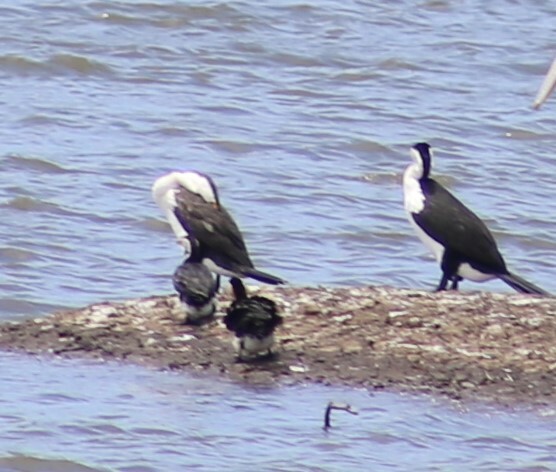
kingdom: Animalia
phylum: Chordata
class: Aves
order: Suliformes
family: Phalacrocoracidae
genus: Phalacrocorax
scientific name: Phalacrocorax varius
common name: Pied cormorant
